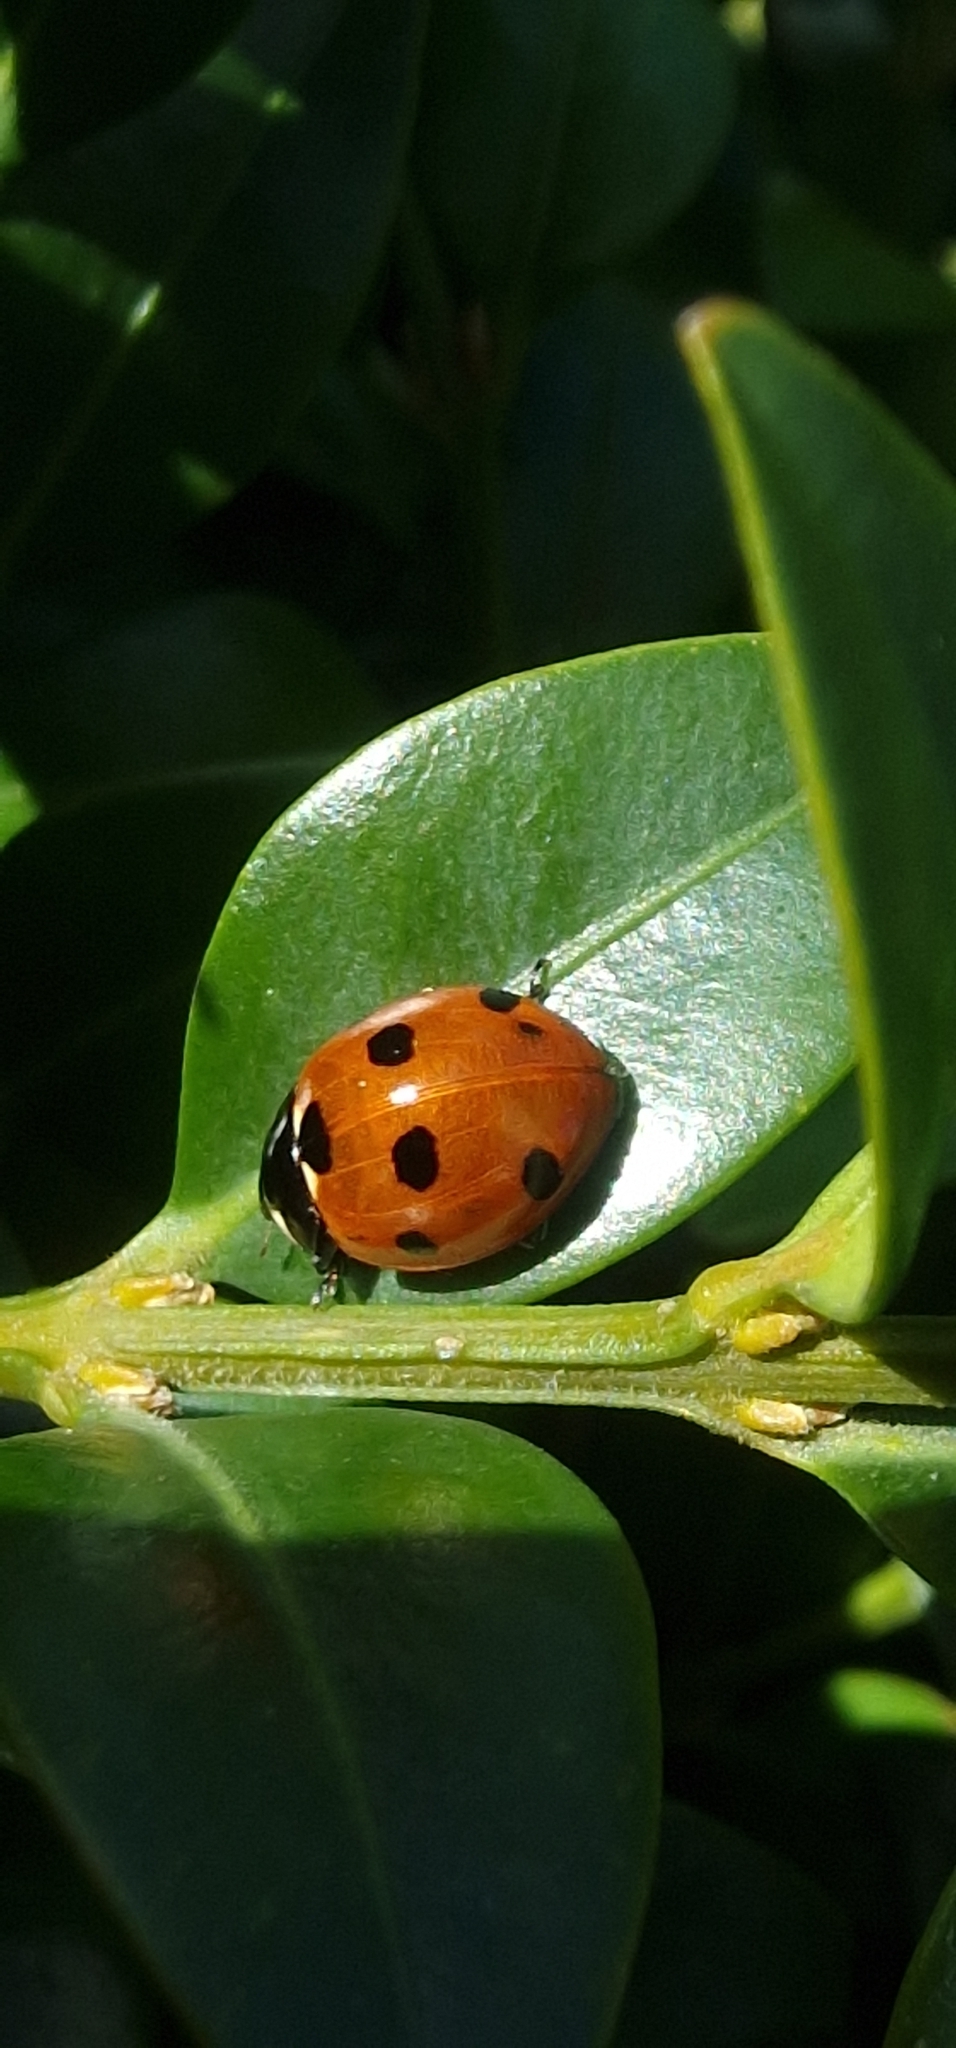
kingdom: Animalia
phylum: Arthropoda
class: Insecta
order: Coleoptera
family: Coccinellidae
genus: Coccinella
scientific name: Coccinella septempunctata
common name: Sevenspotted lady beetle
